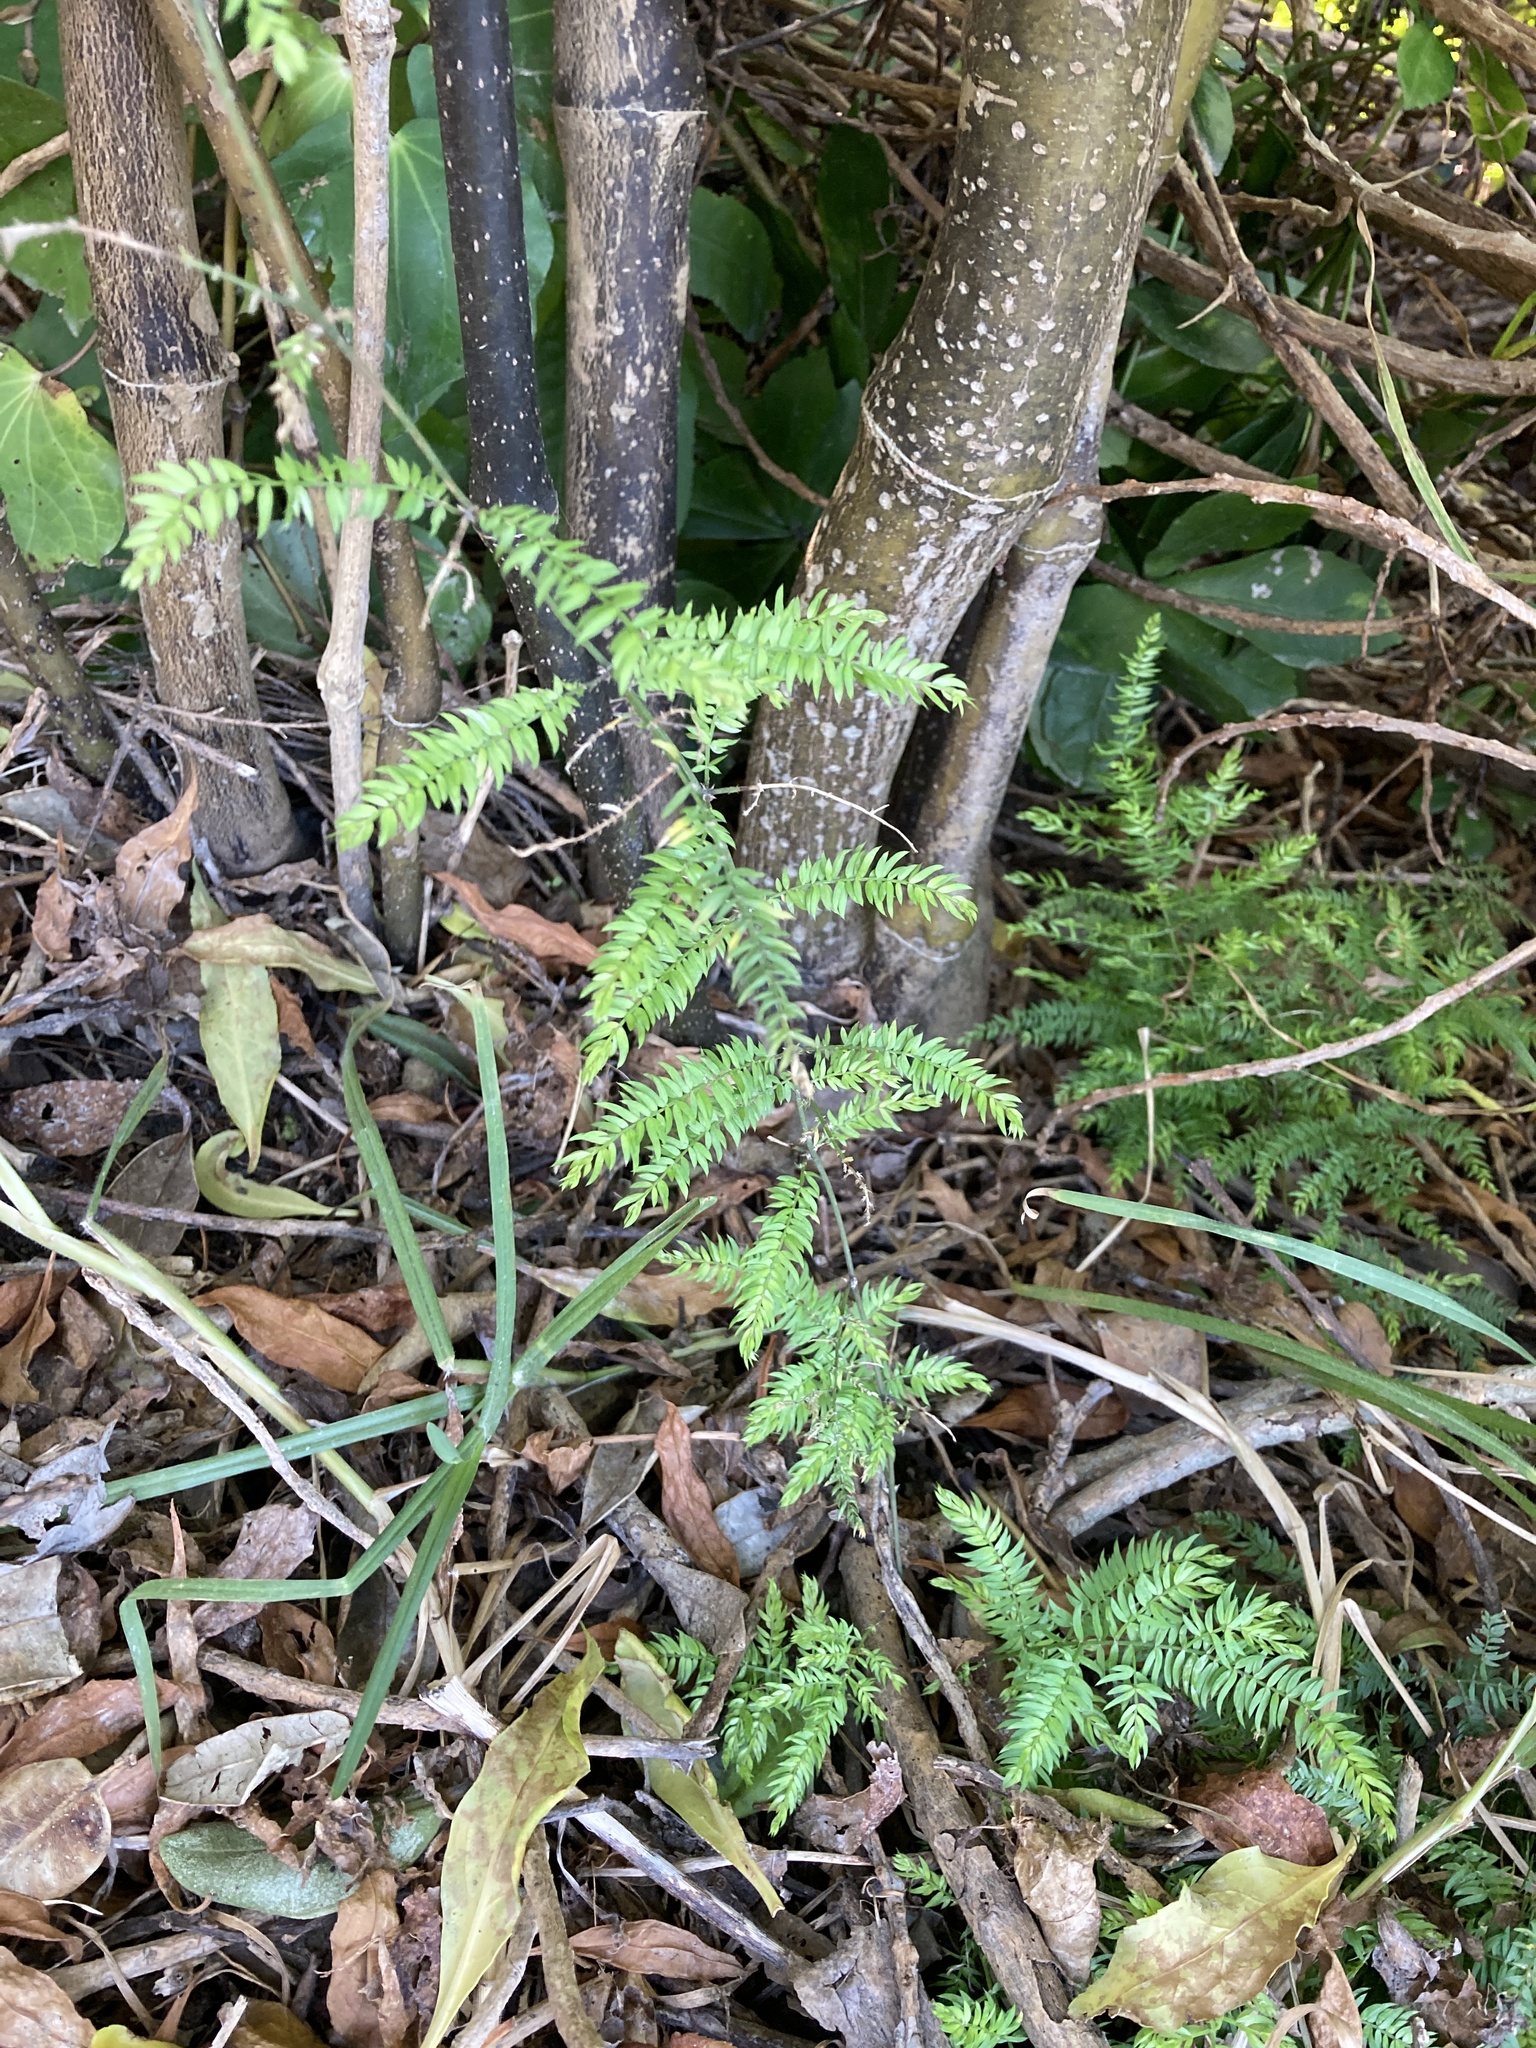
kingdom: Plantae
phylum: Tracheophyta
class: Liliopsida
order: Asparagales
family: Asparagaceae
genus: Asparagus
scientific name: Asparagus scandens
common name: Asparagus-fern
